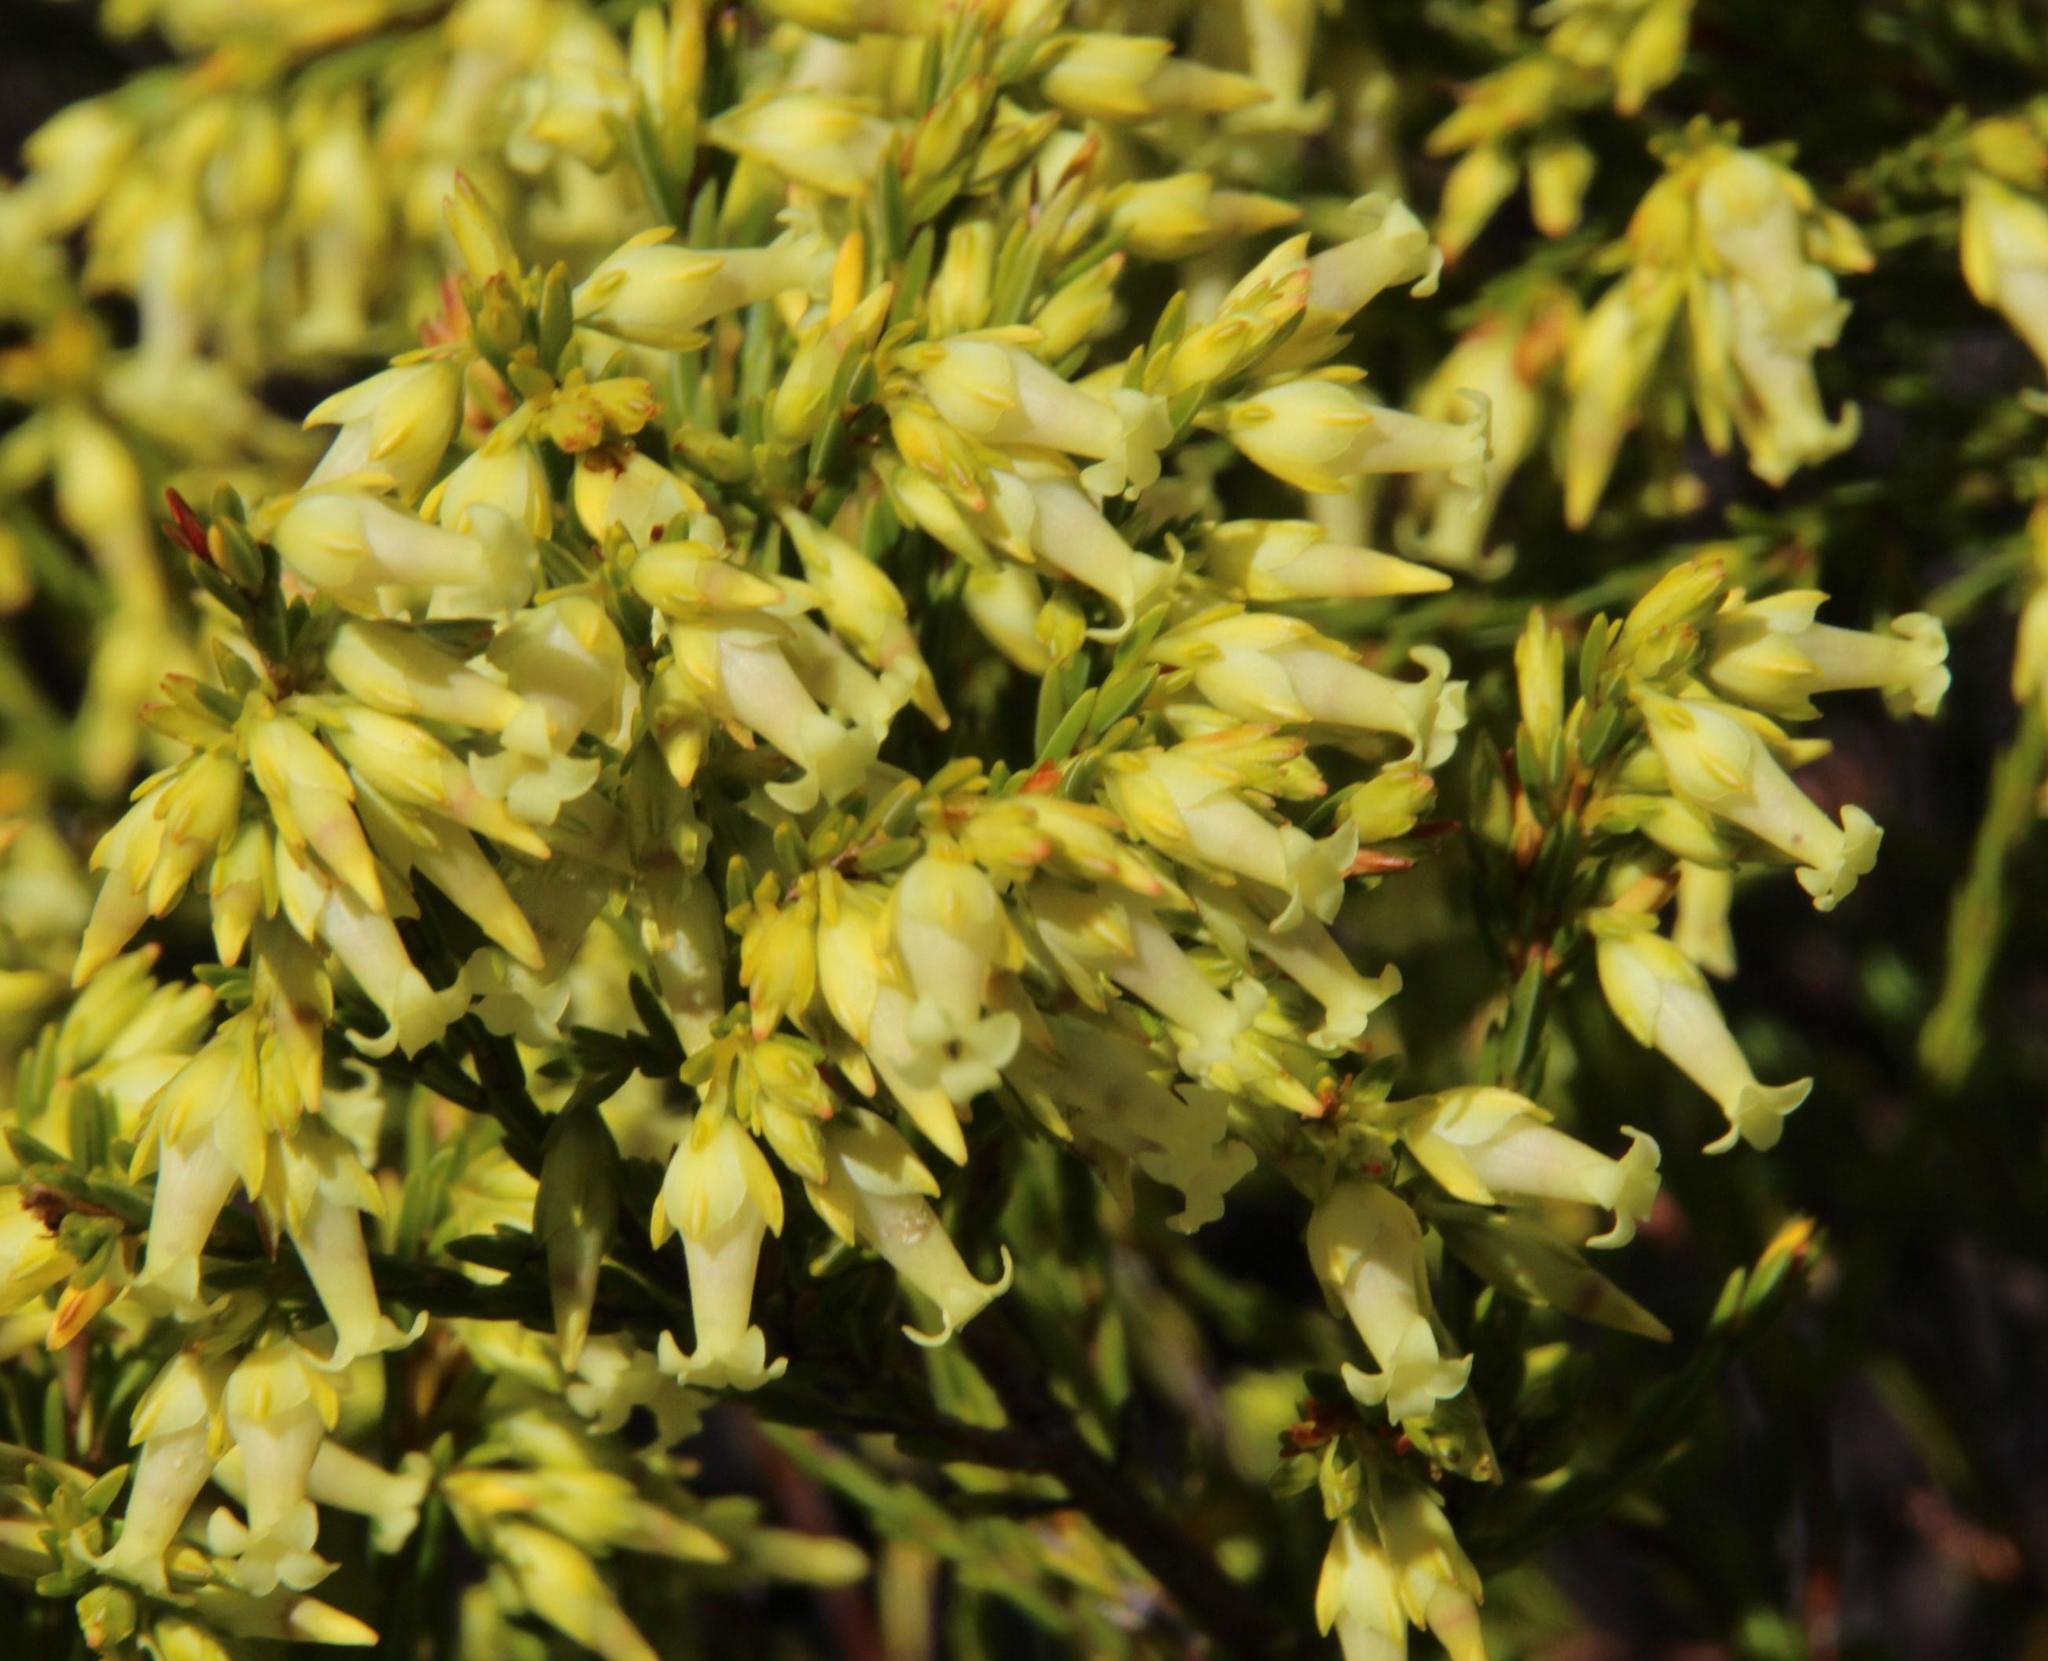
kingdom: Plantae
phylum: Tracheophyta
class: Magnoliopsida
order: Ericales
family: Ericaceae
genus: Erica
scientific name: Erica lutea
